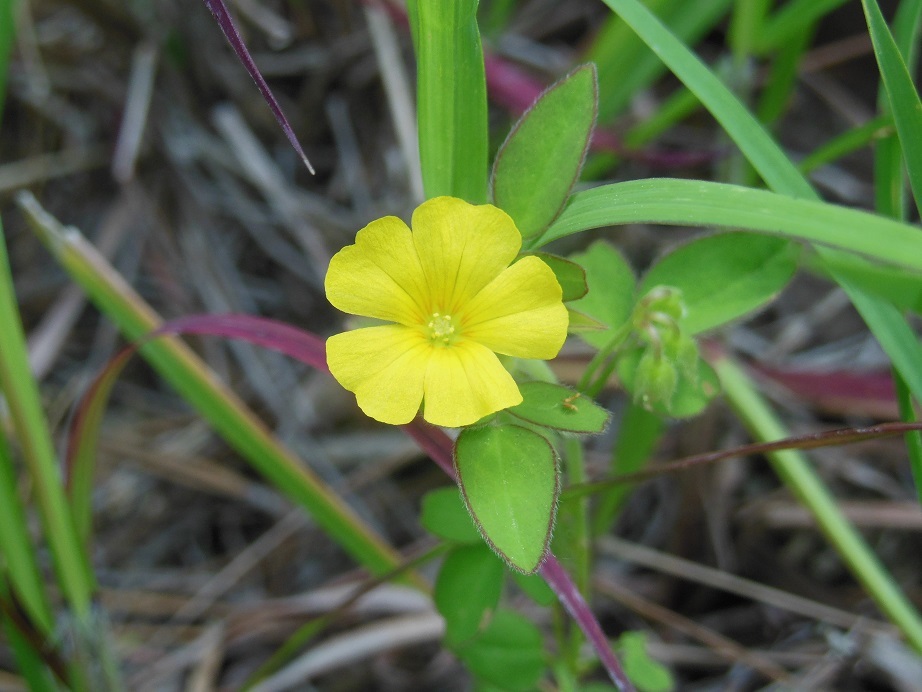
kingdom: Plantae
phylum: Tracheophyta
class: Magnoliopsida
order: Oxalidales
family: Oxalidaceae
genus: Oxalis
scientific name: Oxalis frutescens
